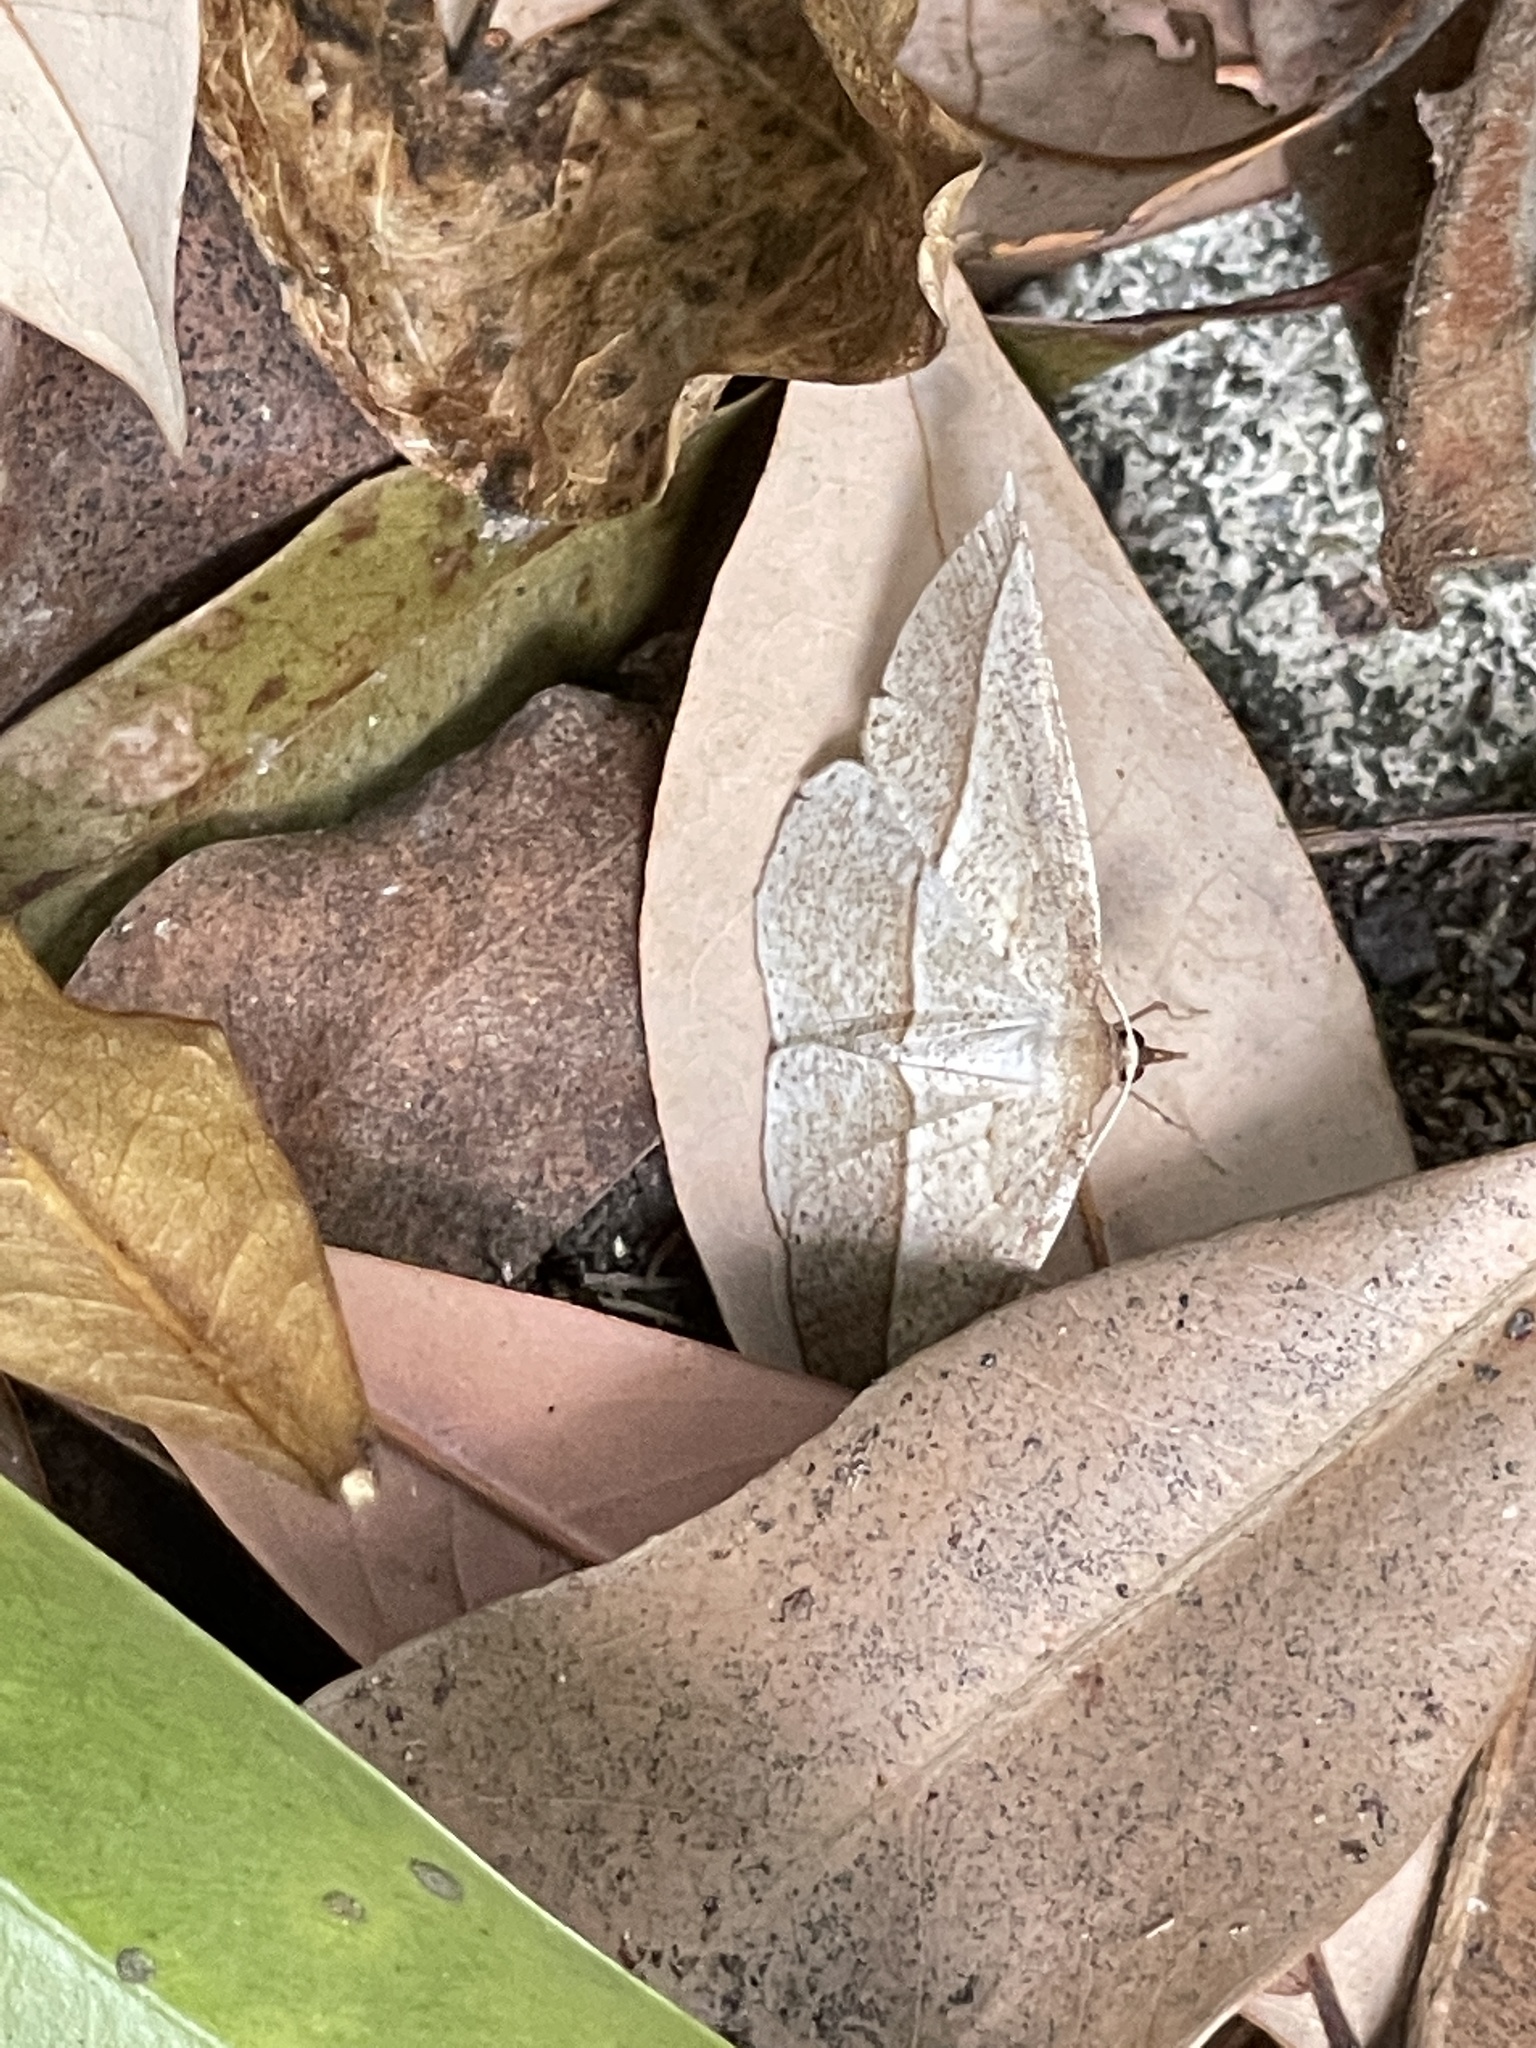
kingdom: Animalia
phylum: Arthropoda
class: Insecta
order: Lepidoptera
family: Geometridae
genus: Heteralex
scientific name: Heteralex unilinea
